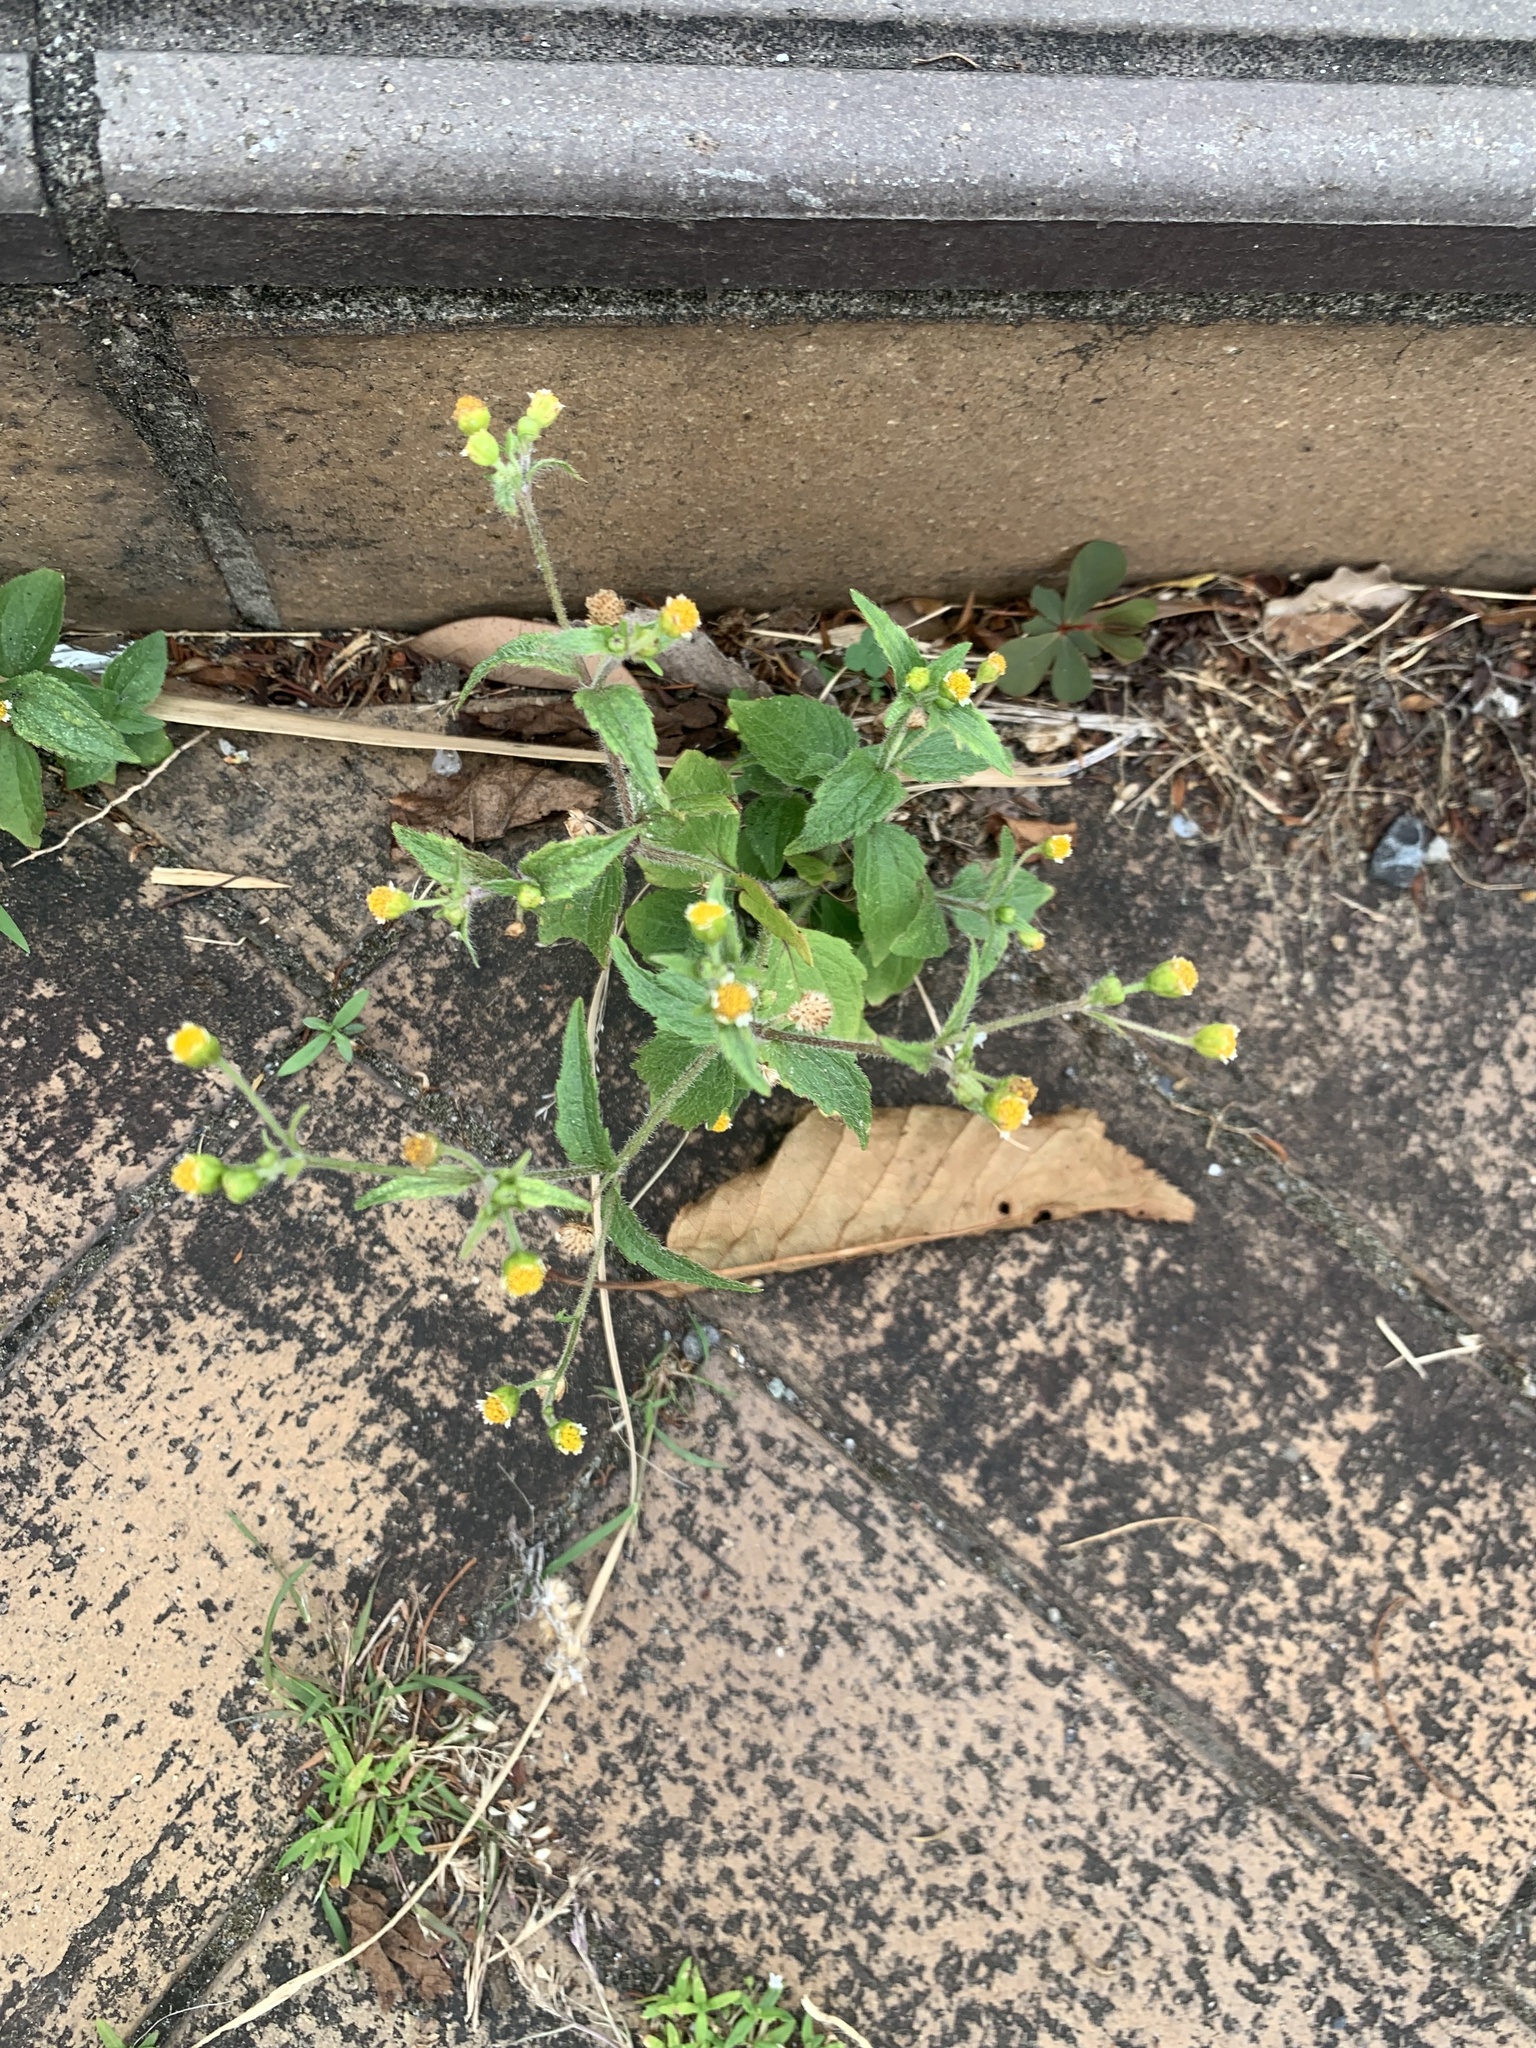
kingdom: Plantae
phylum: Tracheophyta
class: Magnoliopsida
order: Asterales
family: Asteraceae
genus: Galinsoga
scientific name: Galinsoga quadriradiata
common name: Shaggy soldier
